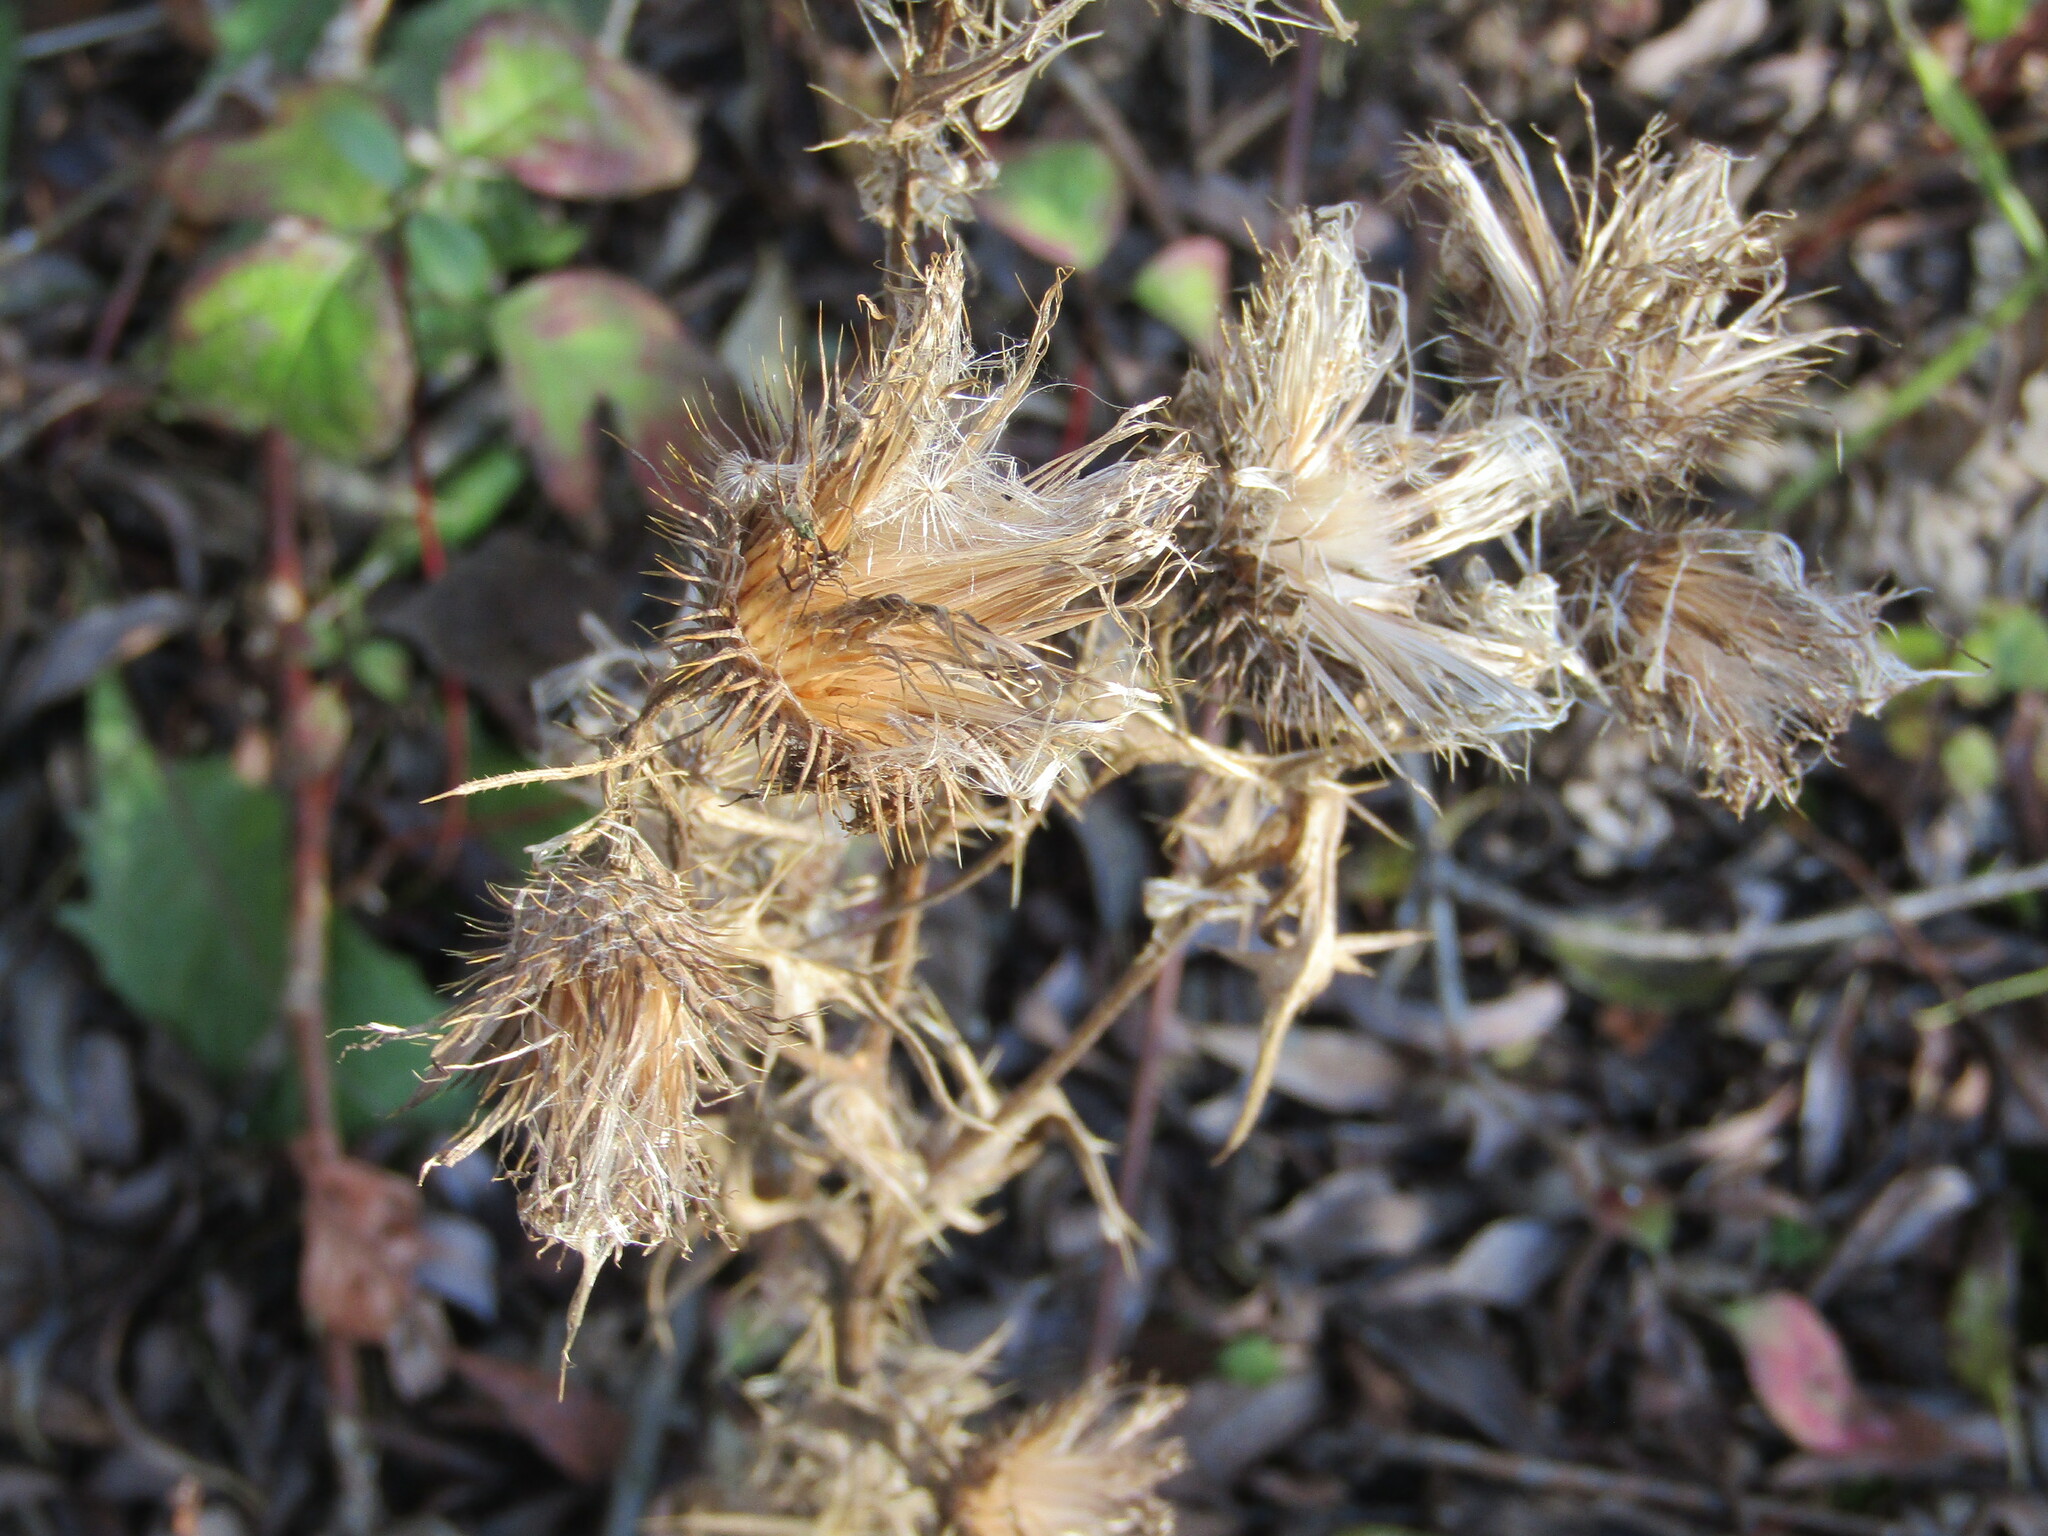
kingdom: Plantae
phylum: Tracheophyta
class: Magnoliopsida
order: Asterales
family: Asteraceae
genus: Cirsium
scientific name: Cirsium vulgare
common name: Bull thistle
